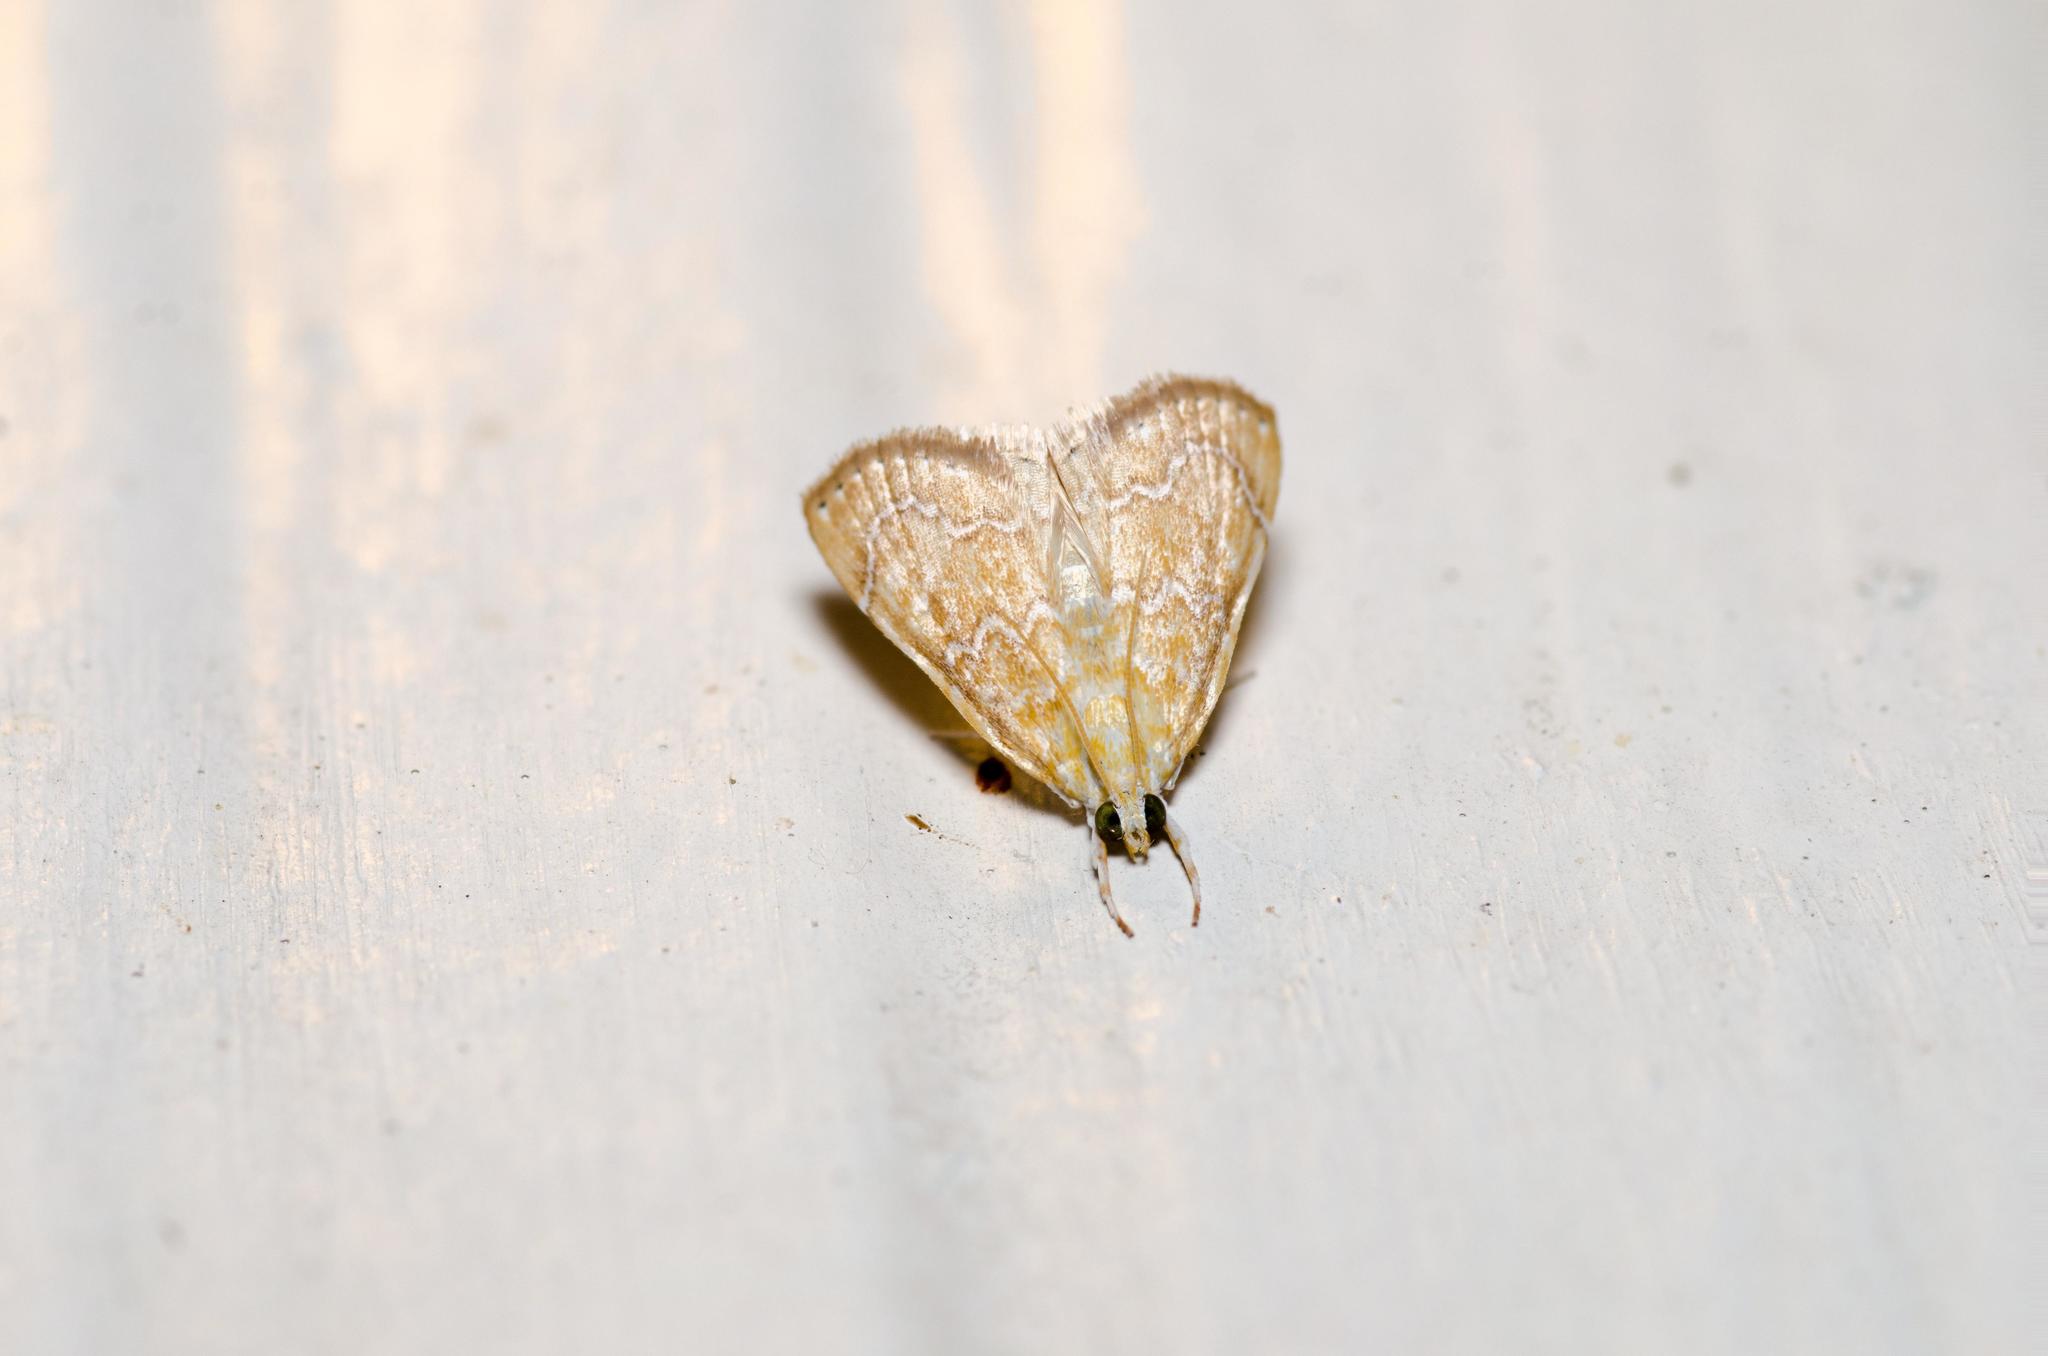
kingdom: Animalia
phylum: Arthropoda
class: Insecta
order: Lepidoptera
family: Crambidae
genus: Glaphyria
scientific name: Glaphyria sesquistrialis
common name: White-roped glaphyria
